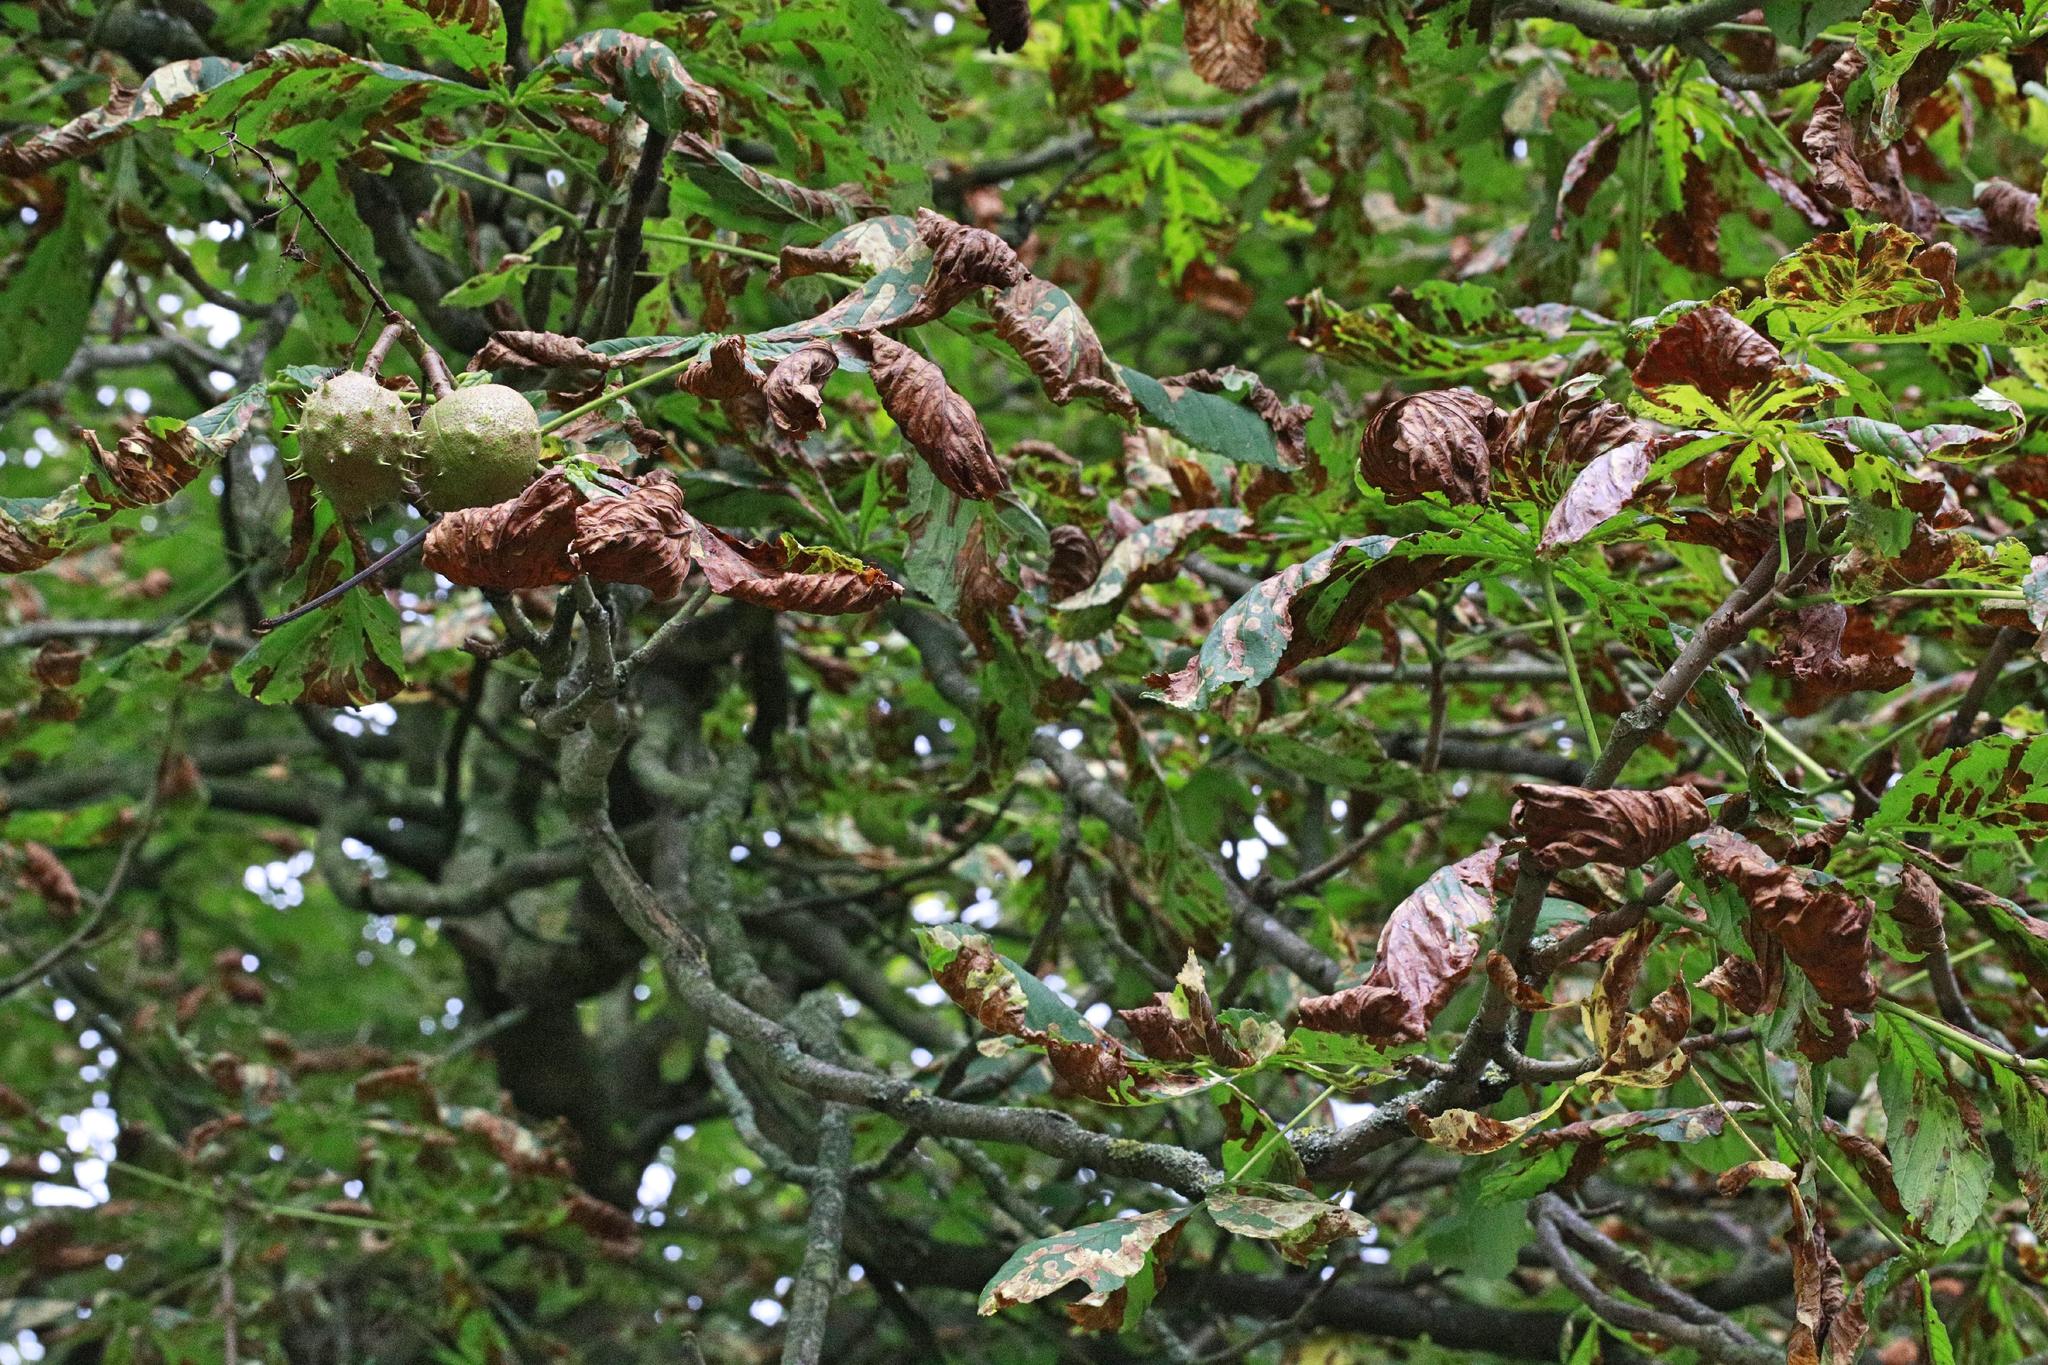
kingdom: Plantae
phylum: Tracheophyta
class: Magnoliopsida
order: Sapindales
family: Sapindaceae
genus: Aesculus
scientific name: Aesculus hippocastanum
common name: Horse-chestnut
